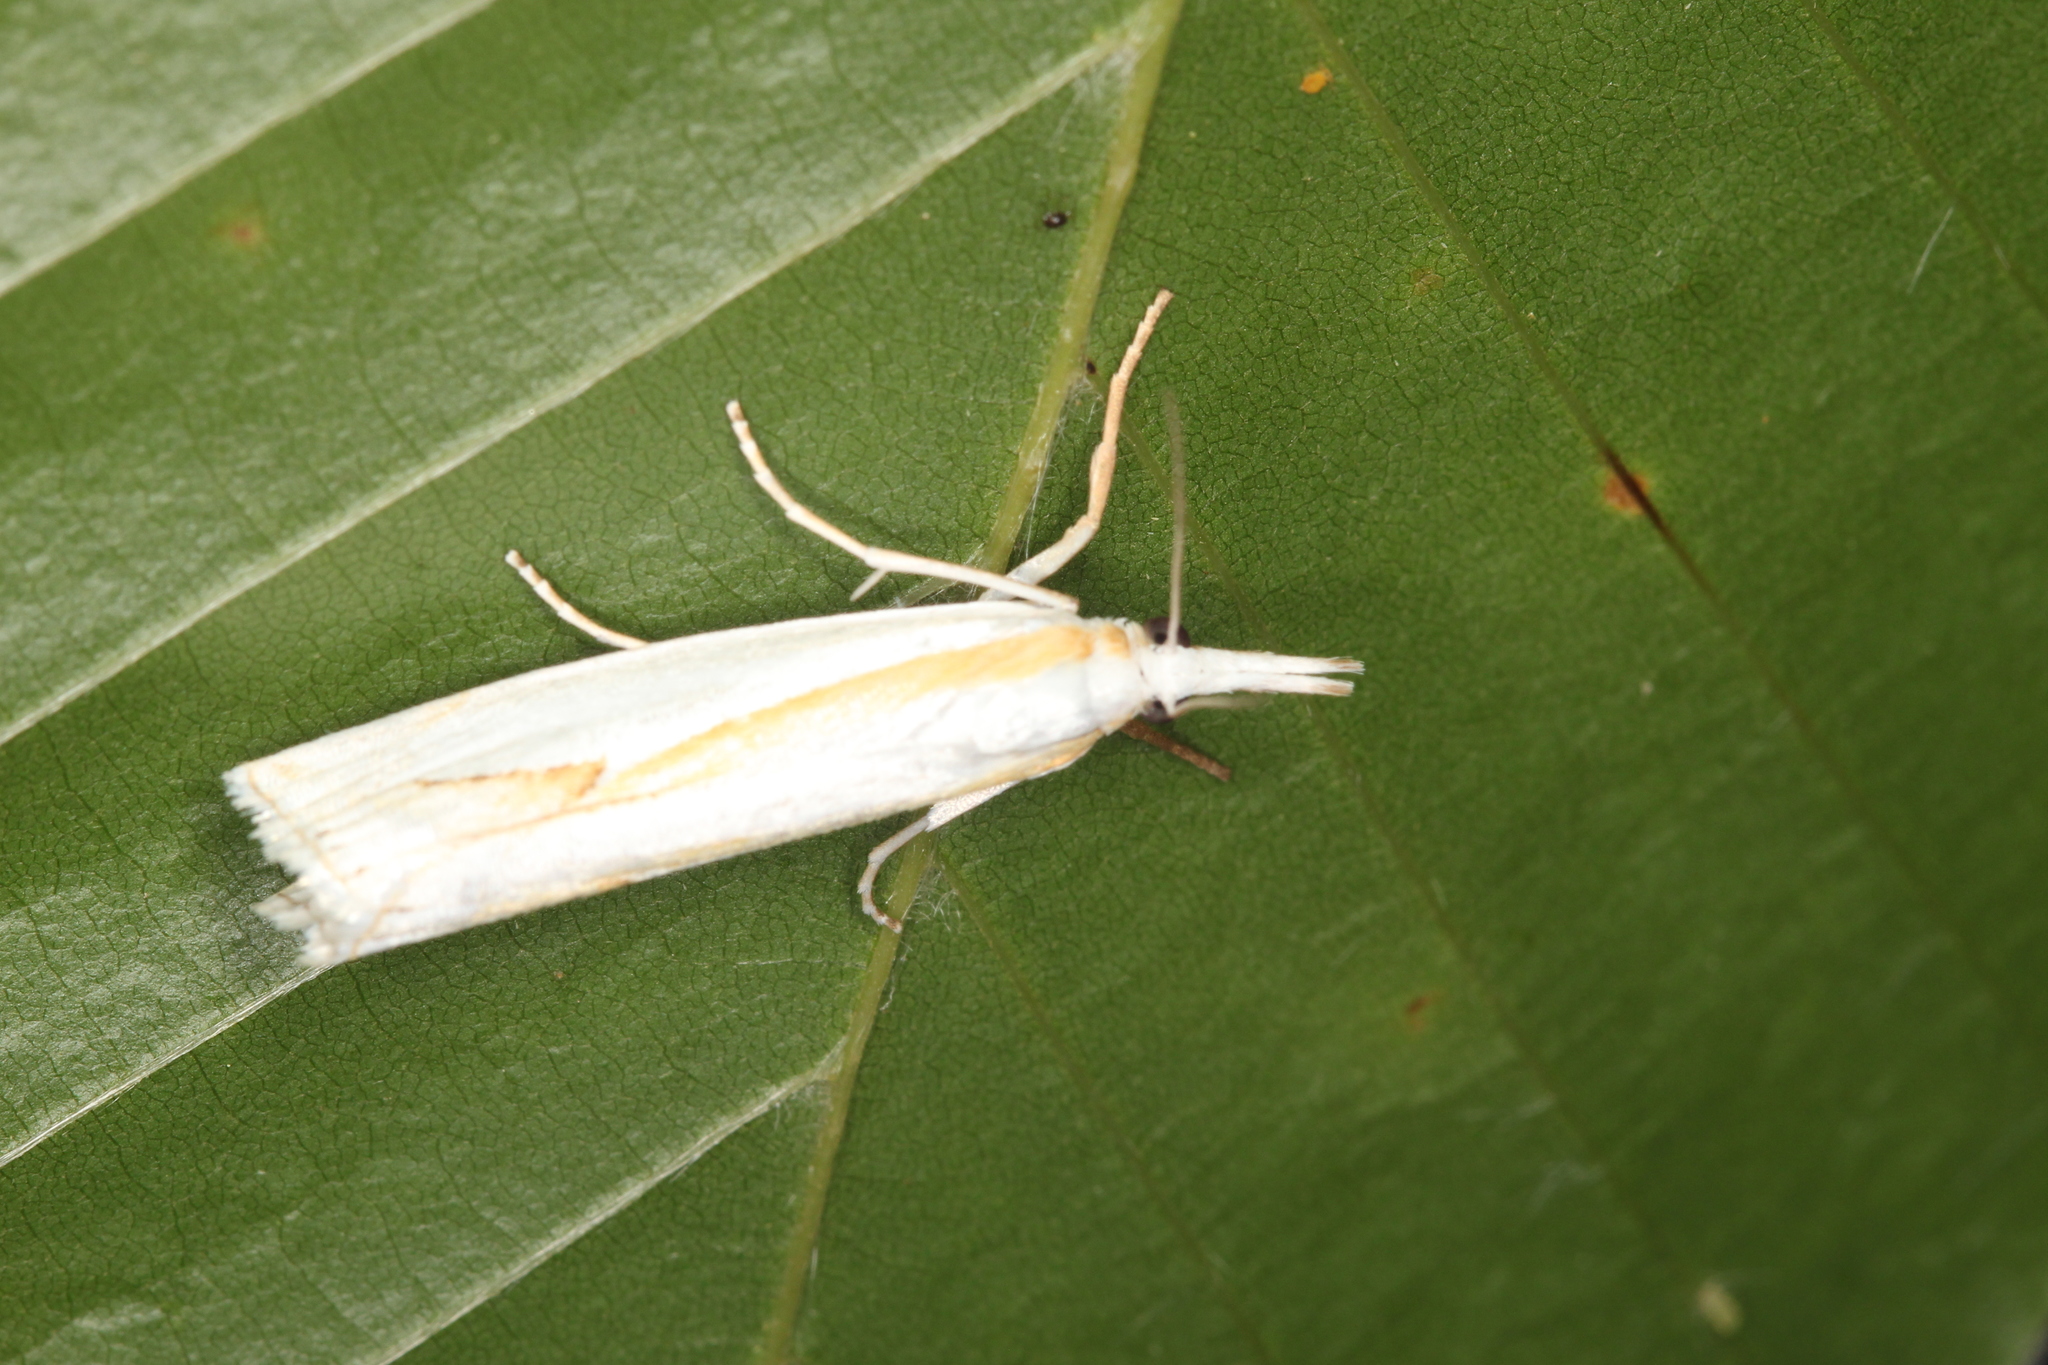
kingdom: Animalia
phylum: Arthropoda
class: Insecta
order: Lepidoptera
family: Crambidae
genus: Crambus
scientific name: Crambus girardellus
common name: Girard's grass-veneer
